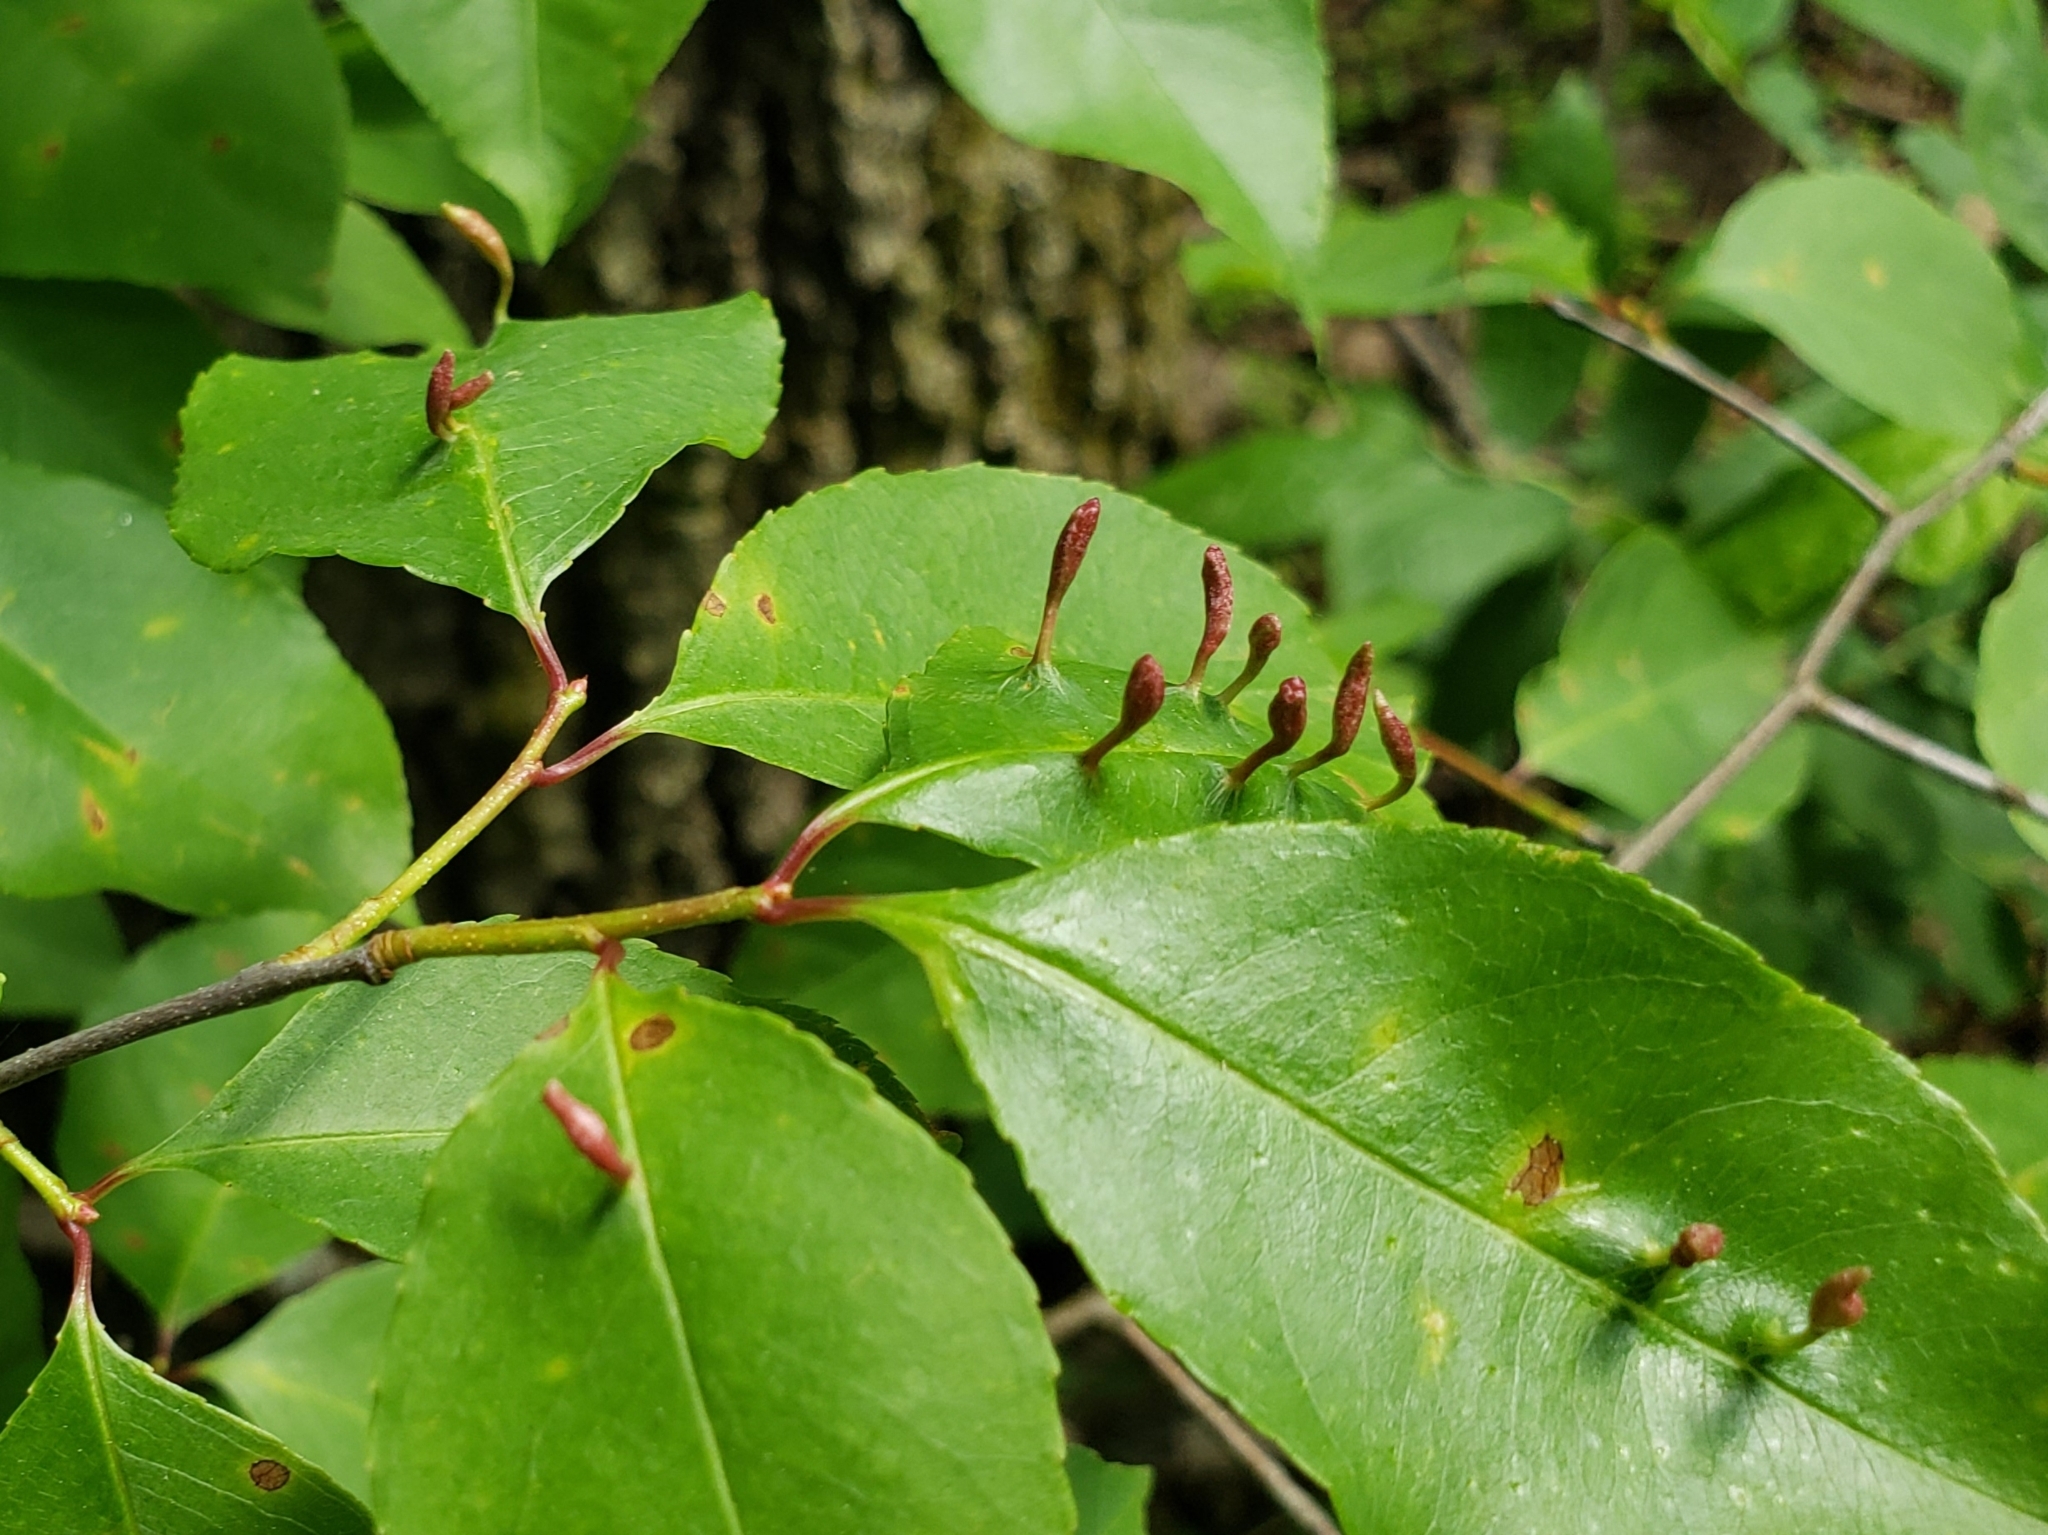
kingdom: Animalia
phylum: Arthropoda
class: Arachnida
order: Trombidiformes
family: Eriophyidae
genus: Eriophyes
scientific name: Eriophyes
